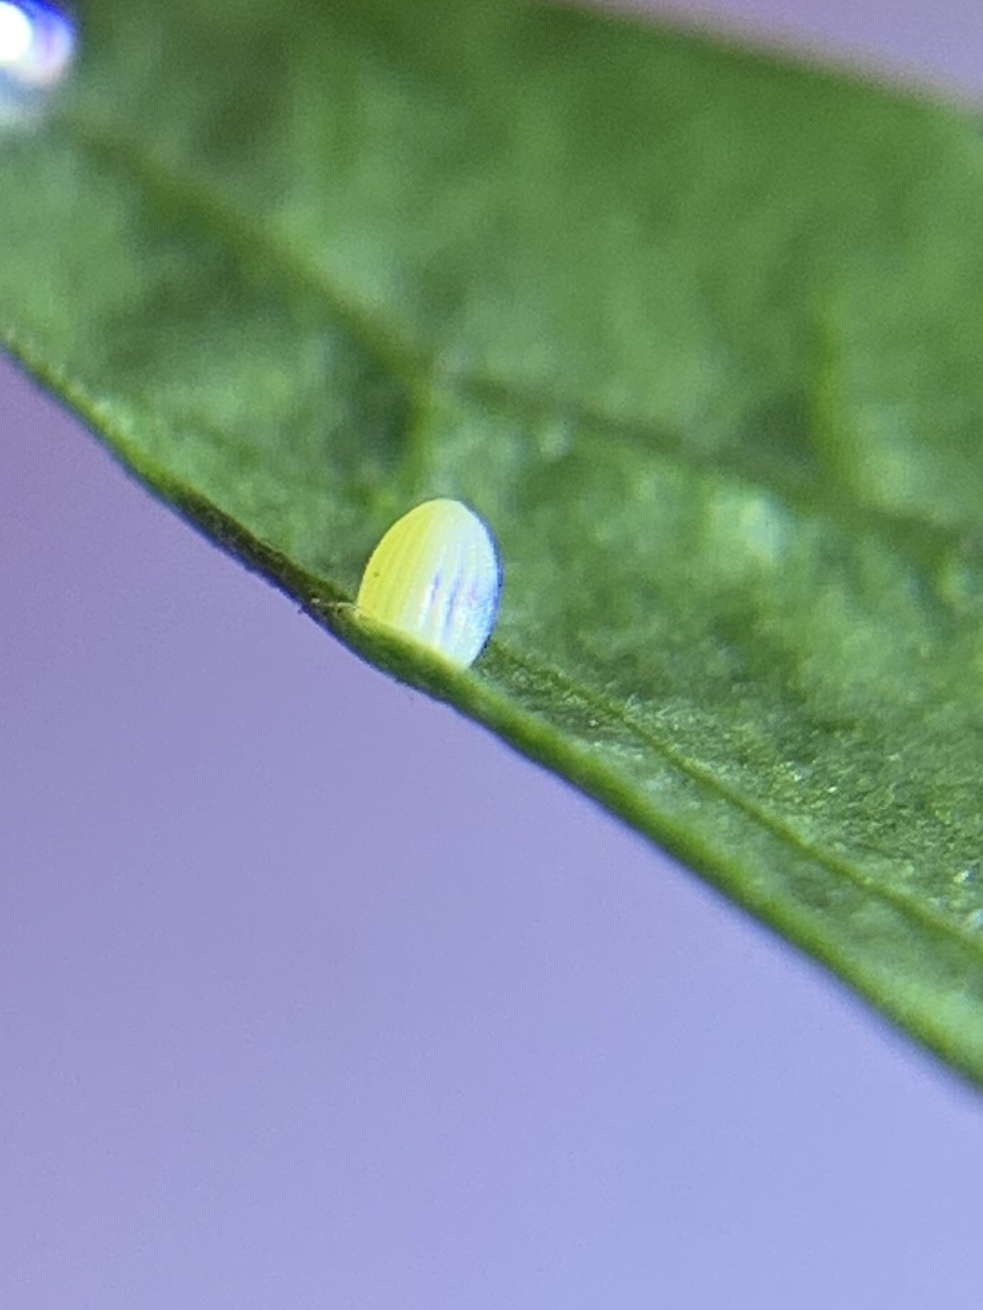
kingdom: Animalia
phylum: Arthropoda
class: Insecta
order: Lepidoptera
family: Nymphalidae
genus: Danaus
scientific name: Danaus plexippus
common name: Monarch
